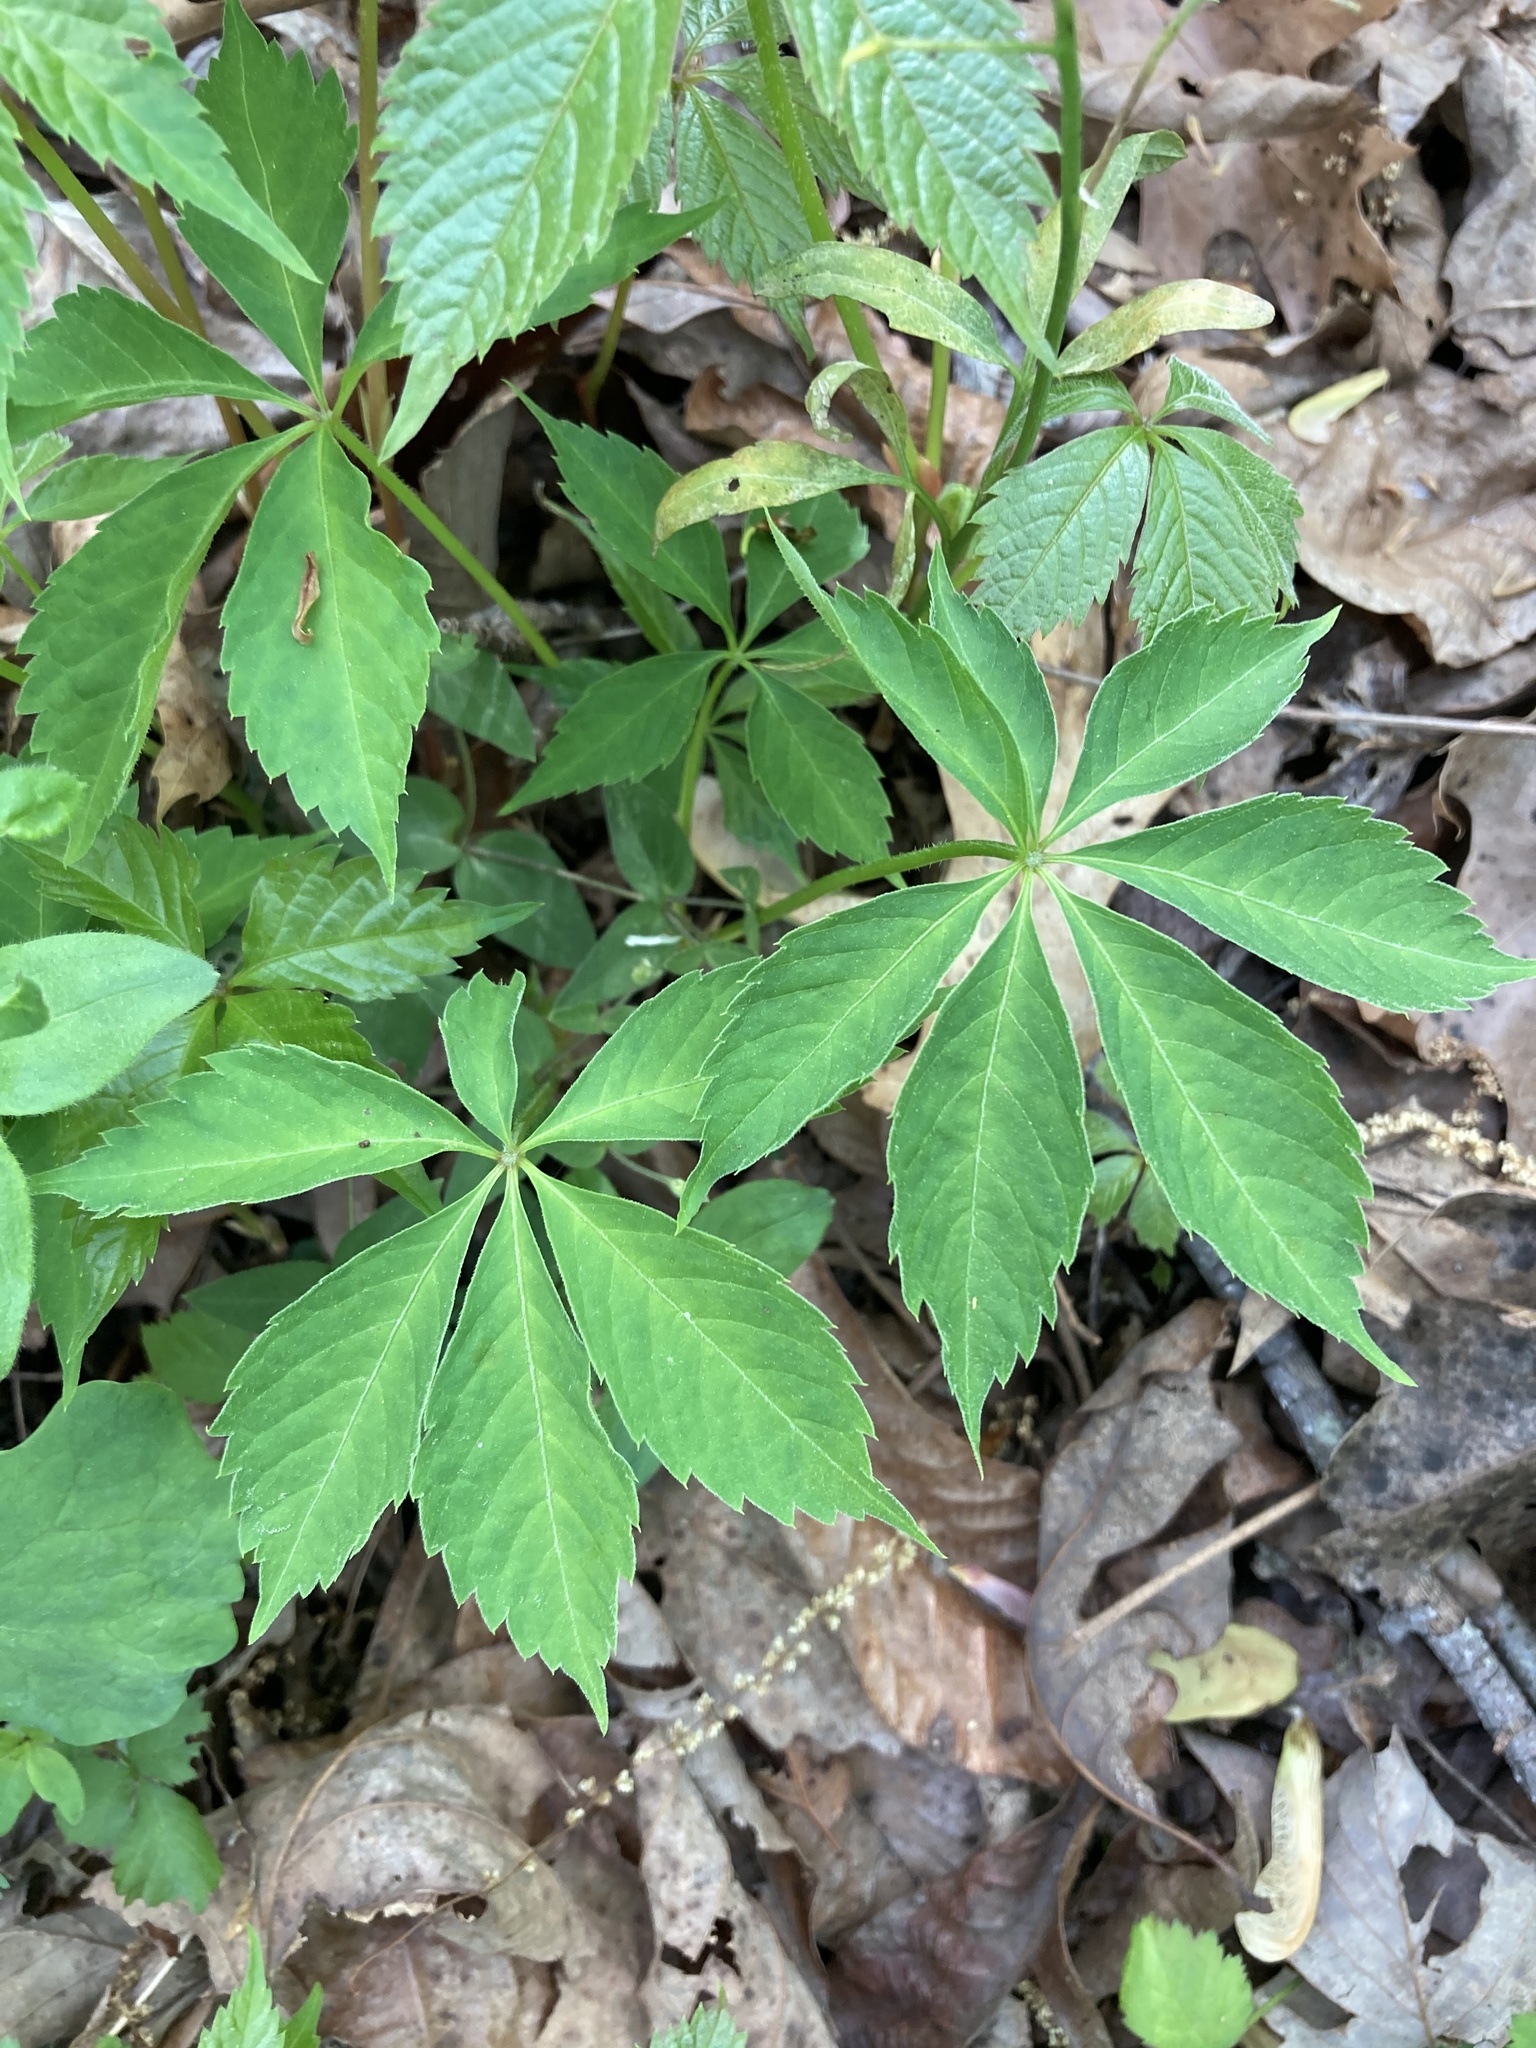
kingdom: Plantae
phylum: Tracheophyta
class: Magnoliopsida
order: Vitales
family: Vitaceae
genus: Parthenocissus
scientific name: Parthenocissus quinquefolia
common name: Virginia-creeper
